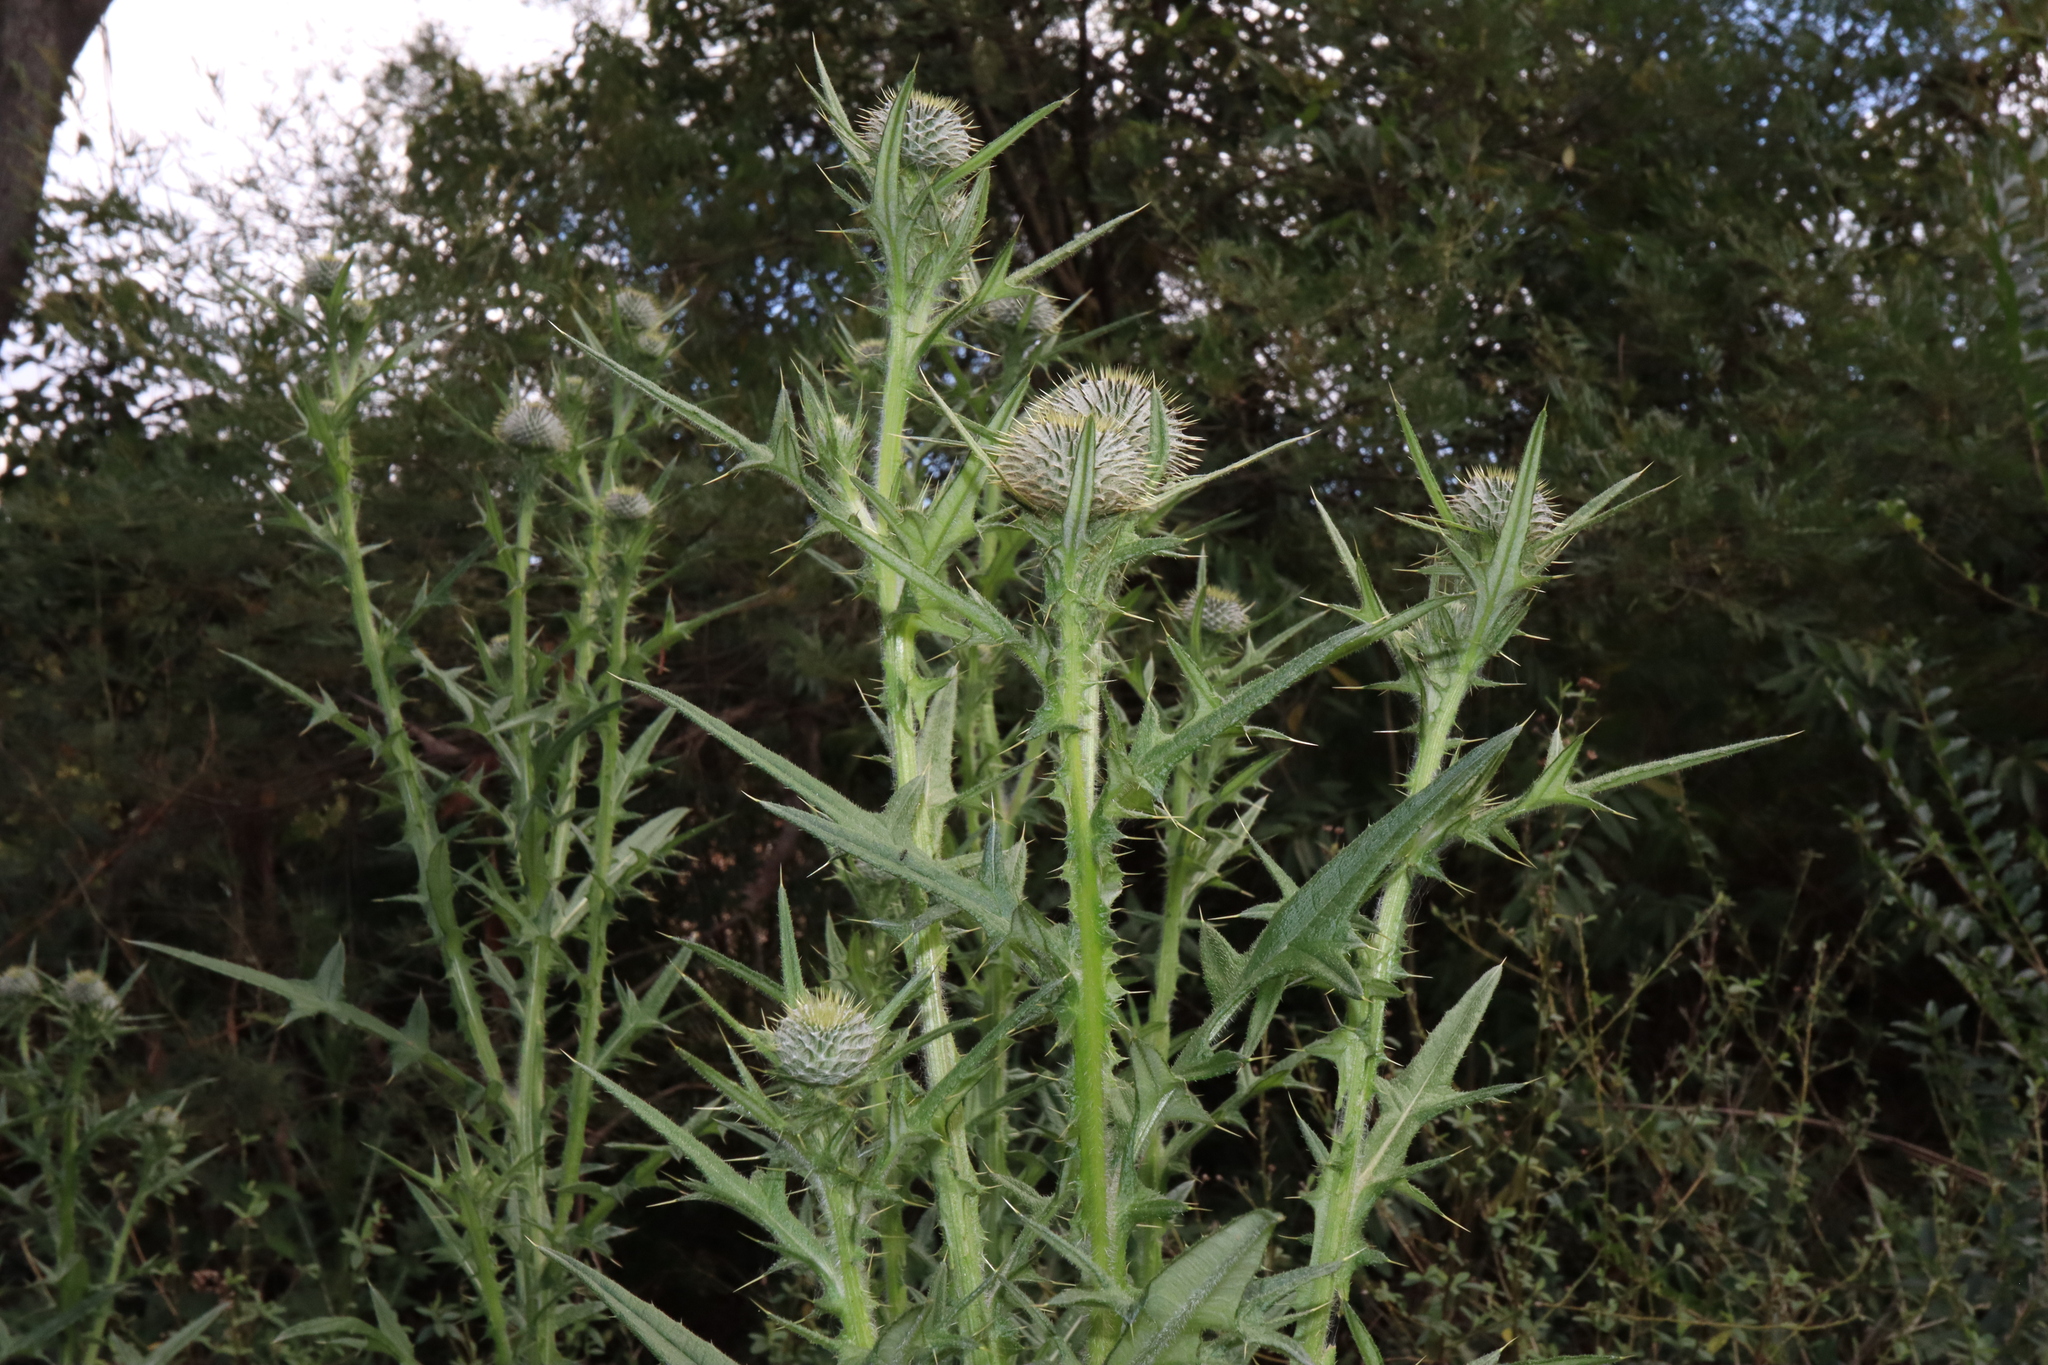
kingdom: Plantae
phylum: Tracheophyta
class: Magnoliopsida
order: Asterales
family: Asteraceae
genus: Cirsium
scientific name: Cirsium vulgare
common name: Bull thistle
